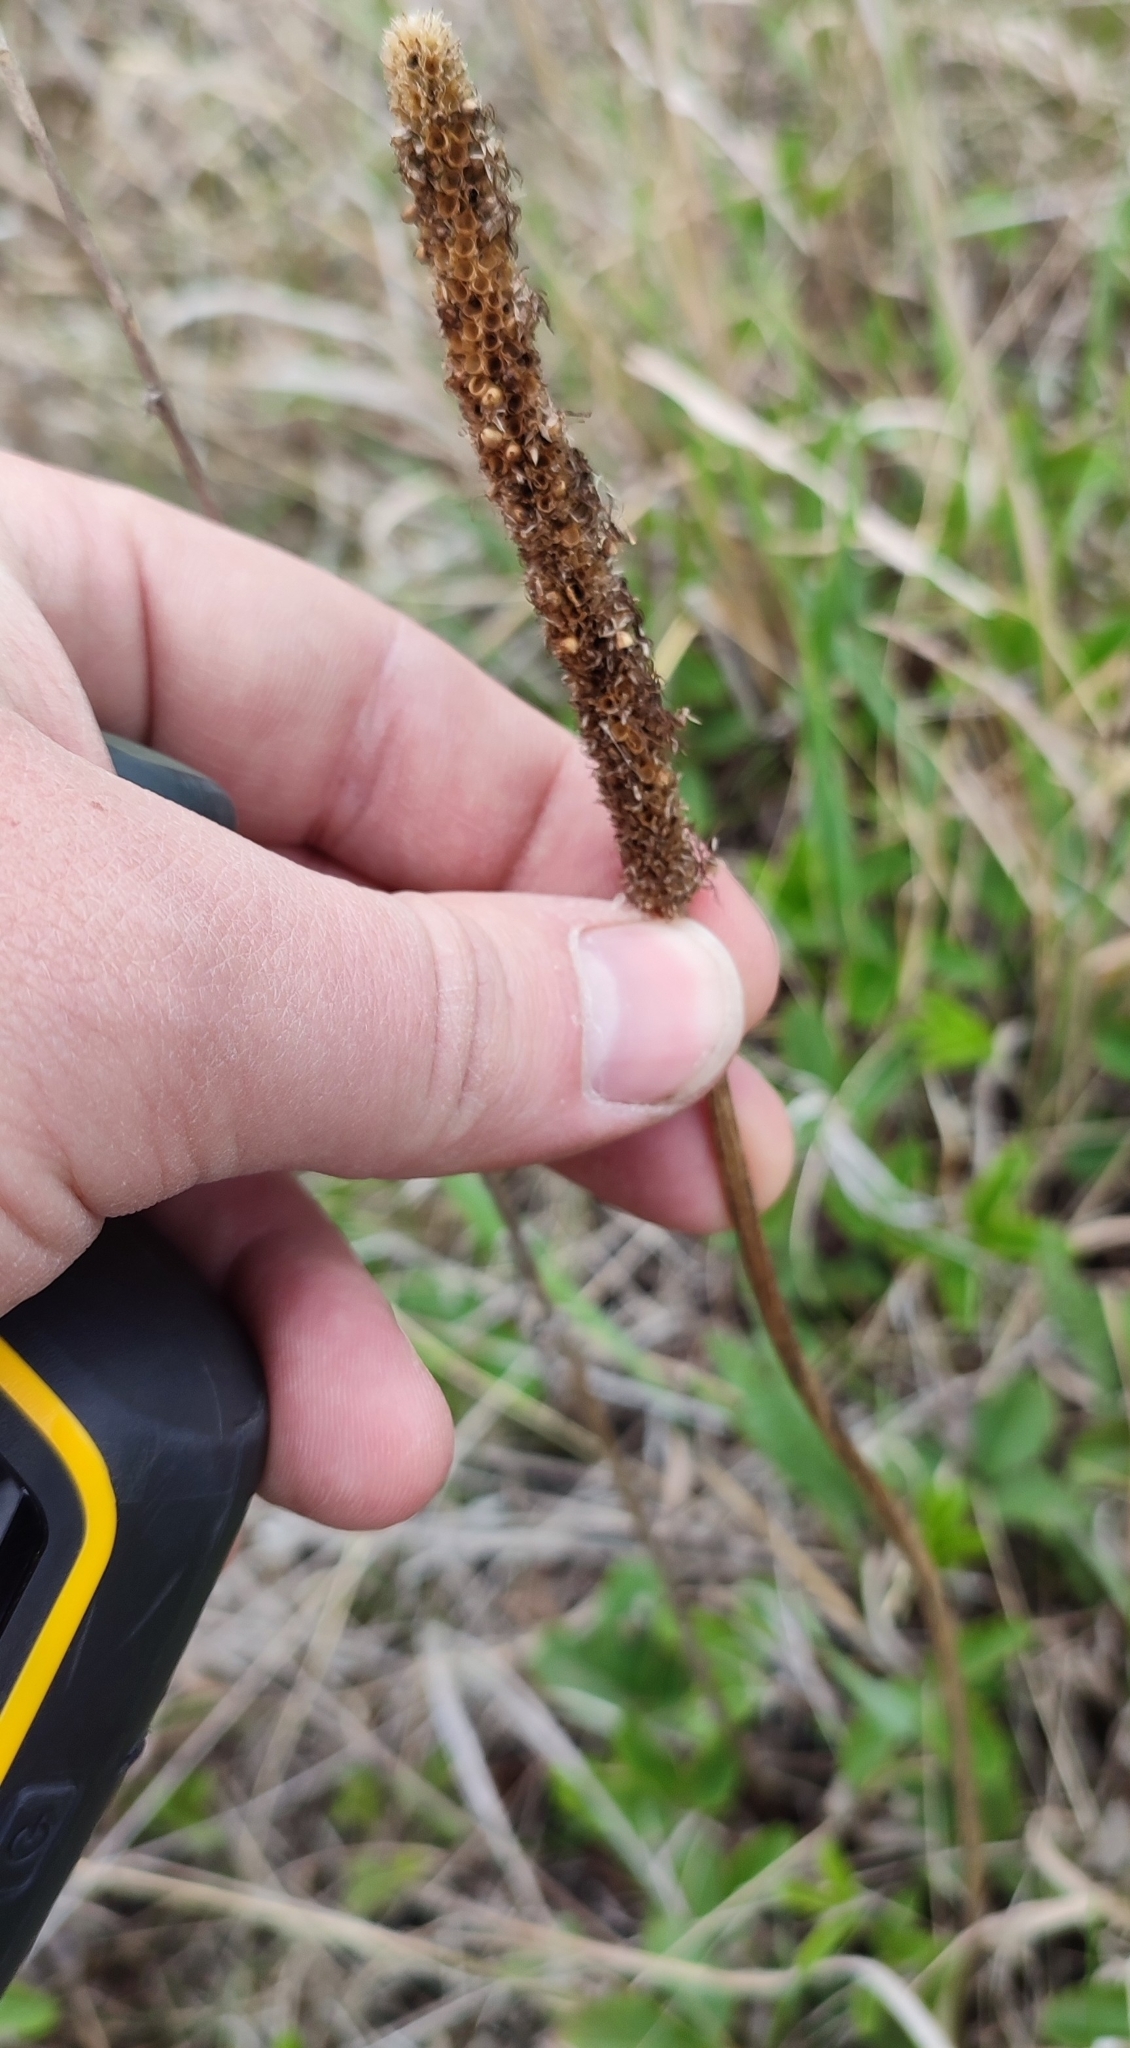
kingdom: Plantae
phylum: Tracheophyta
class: Magnoliopsida
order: Lamiales
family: Plantaginaceae
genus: Plantago
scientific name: Plantago maxima
